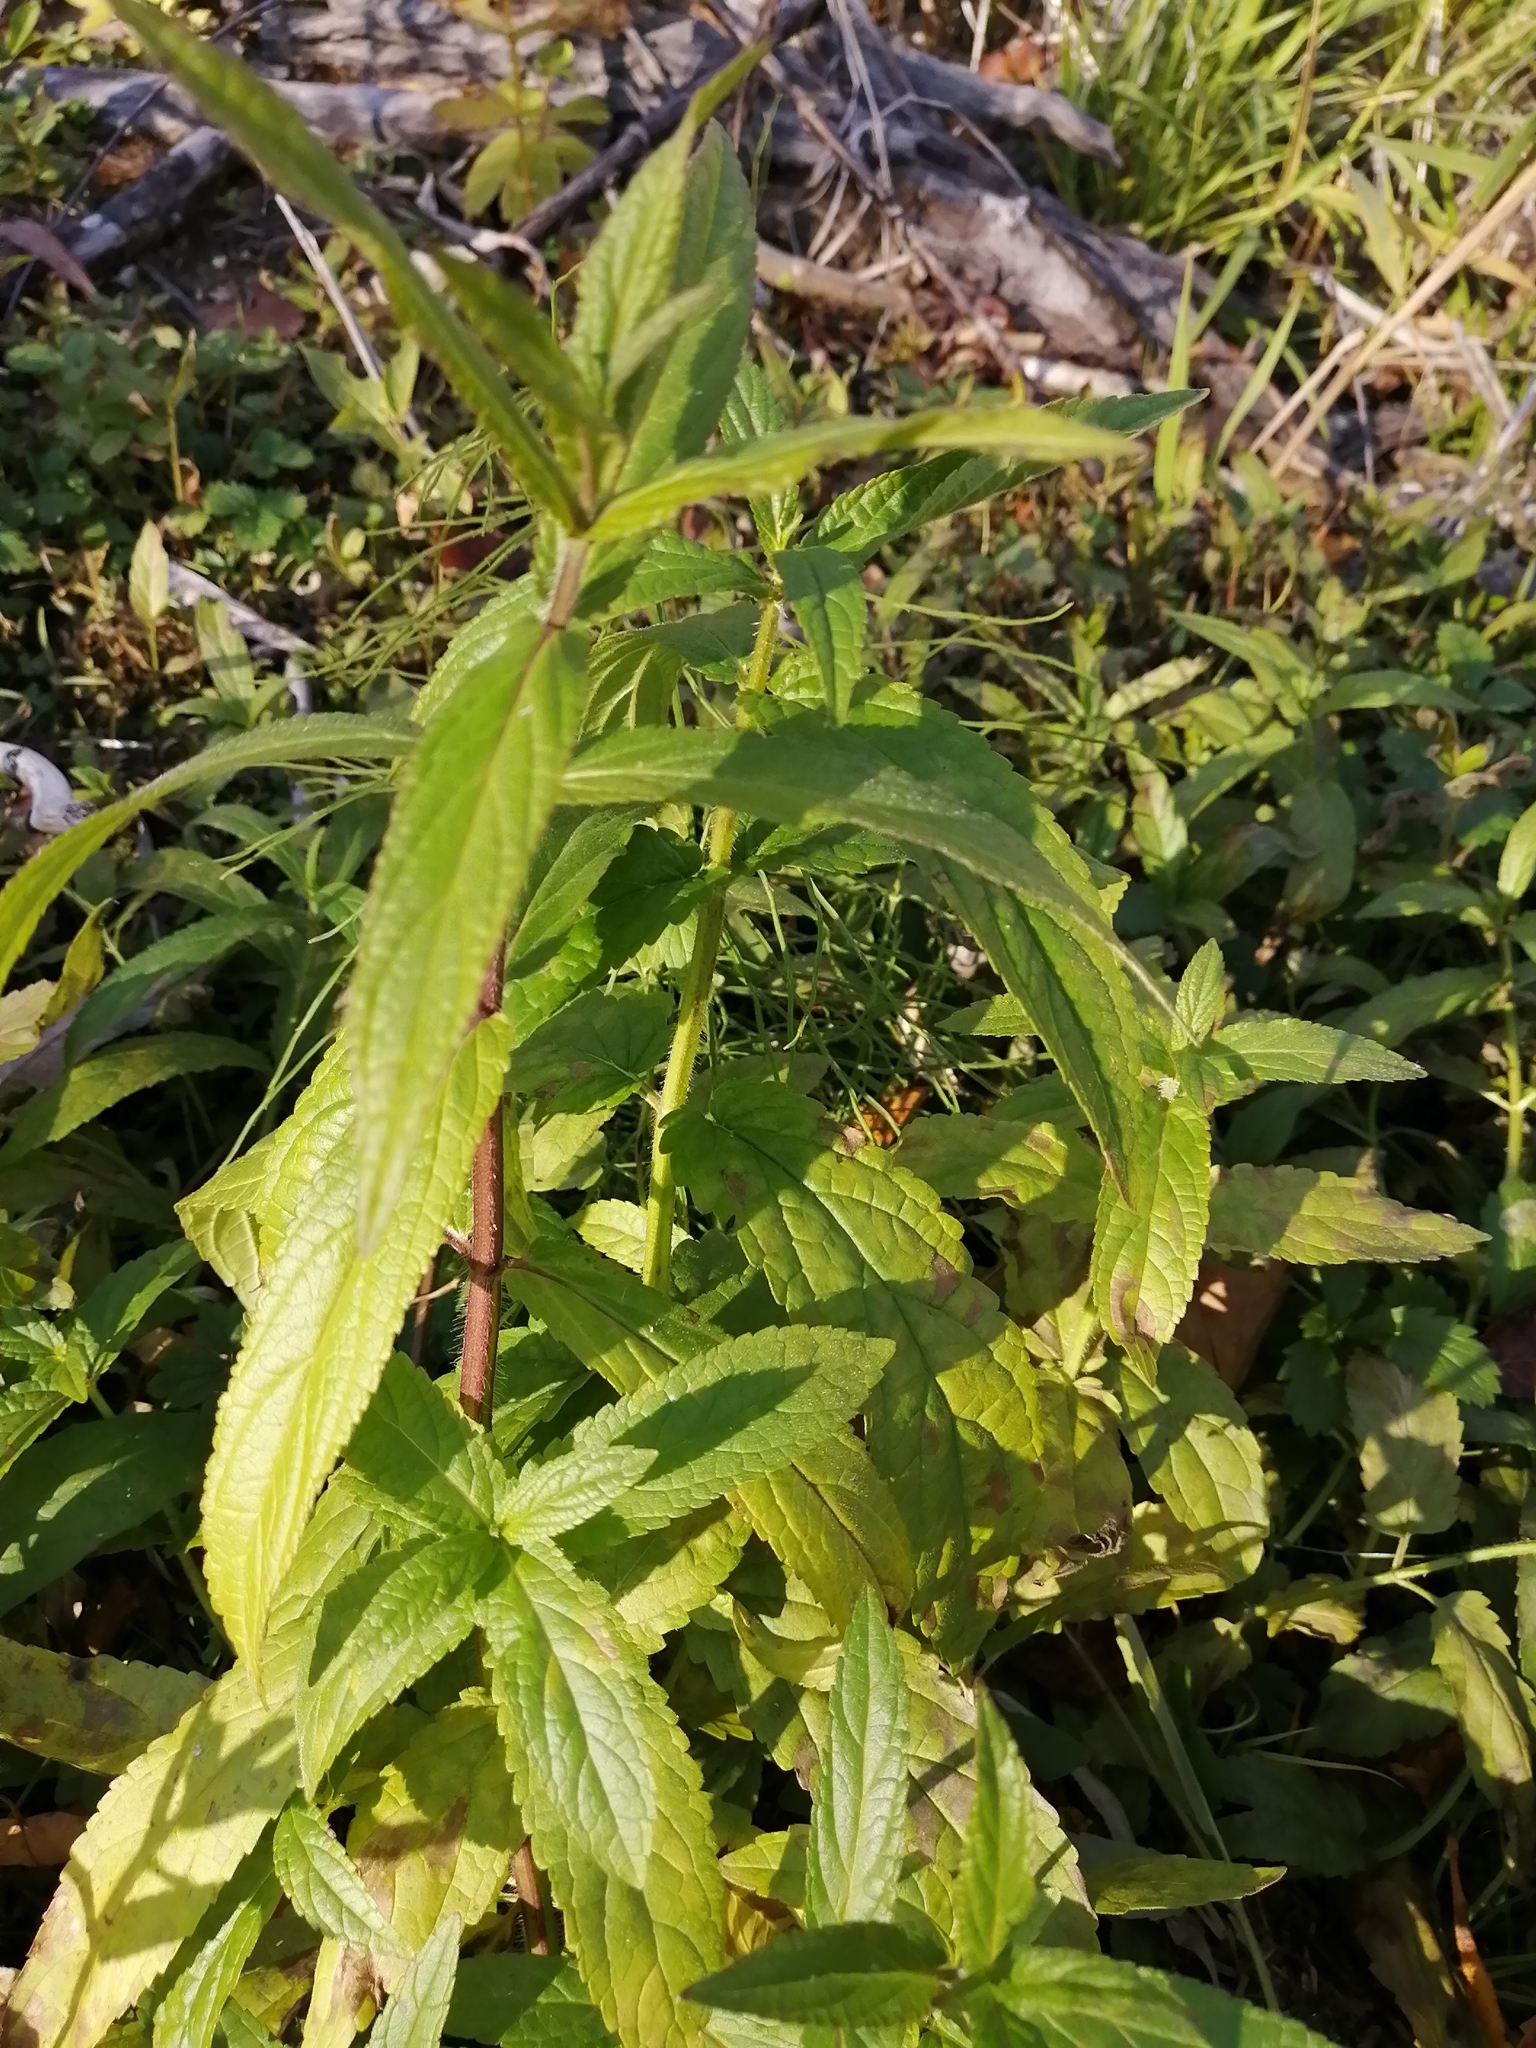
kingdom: Plantae
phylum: Tracheophyta
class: Magnoliopsida
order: Lamiales
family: Lamiaceae
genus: Stachys
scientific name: Stachys palustris
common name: Marsh woundwort
